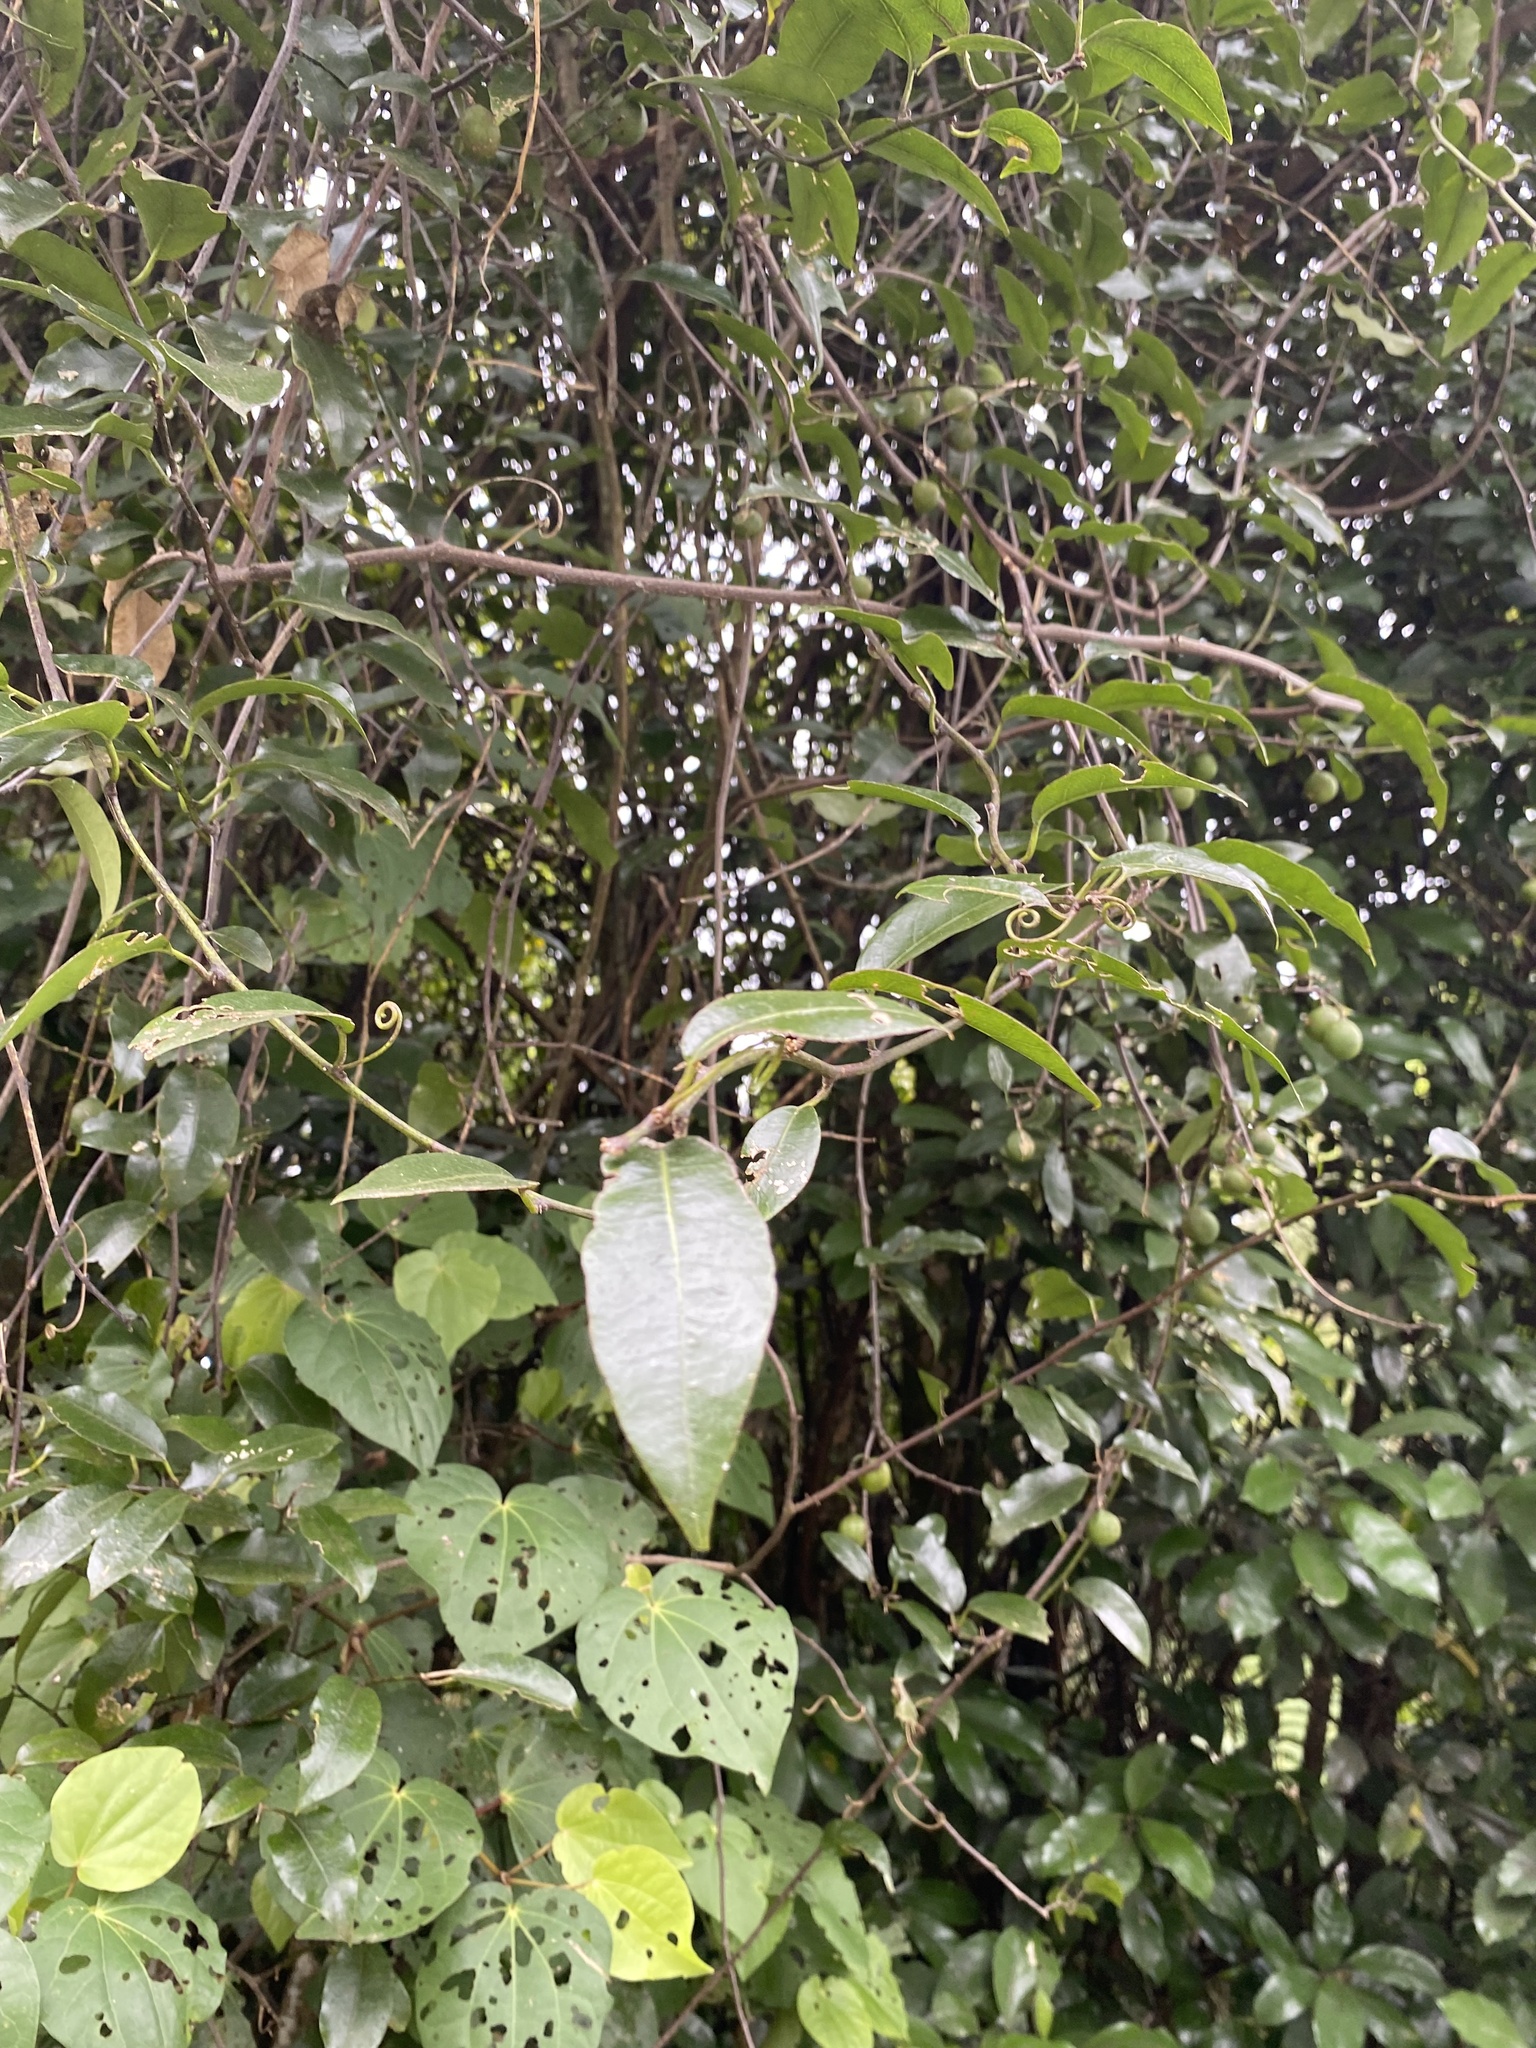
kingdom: Plantae
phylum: Tracheophyta
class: Magnoliopsida
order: Malpighiales
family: Passifloraceae
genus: Passiflora
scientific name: Passiflora tetrandra
